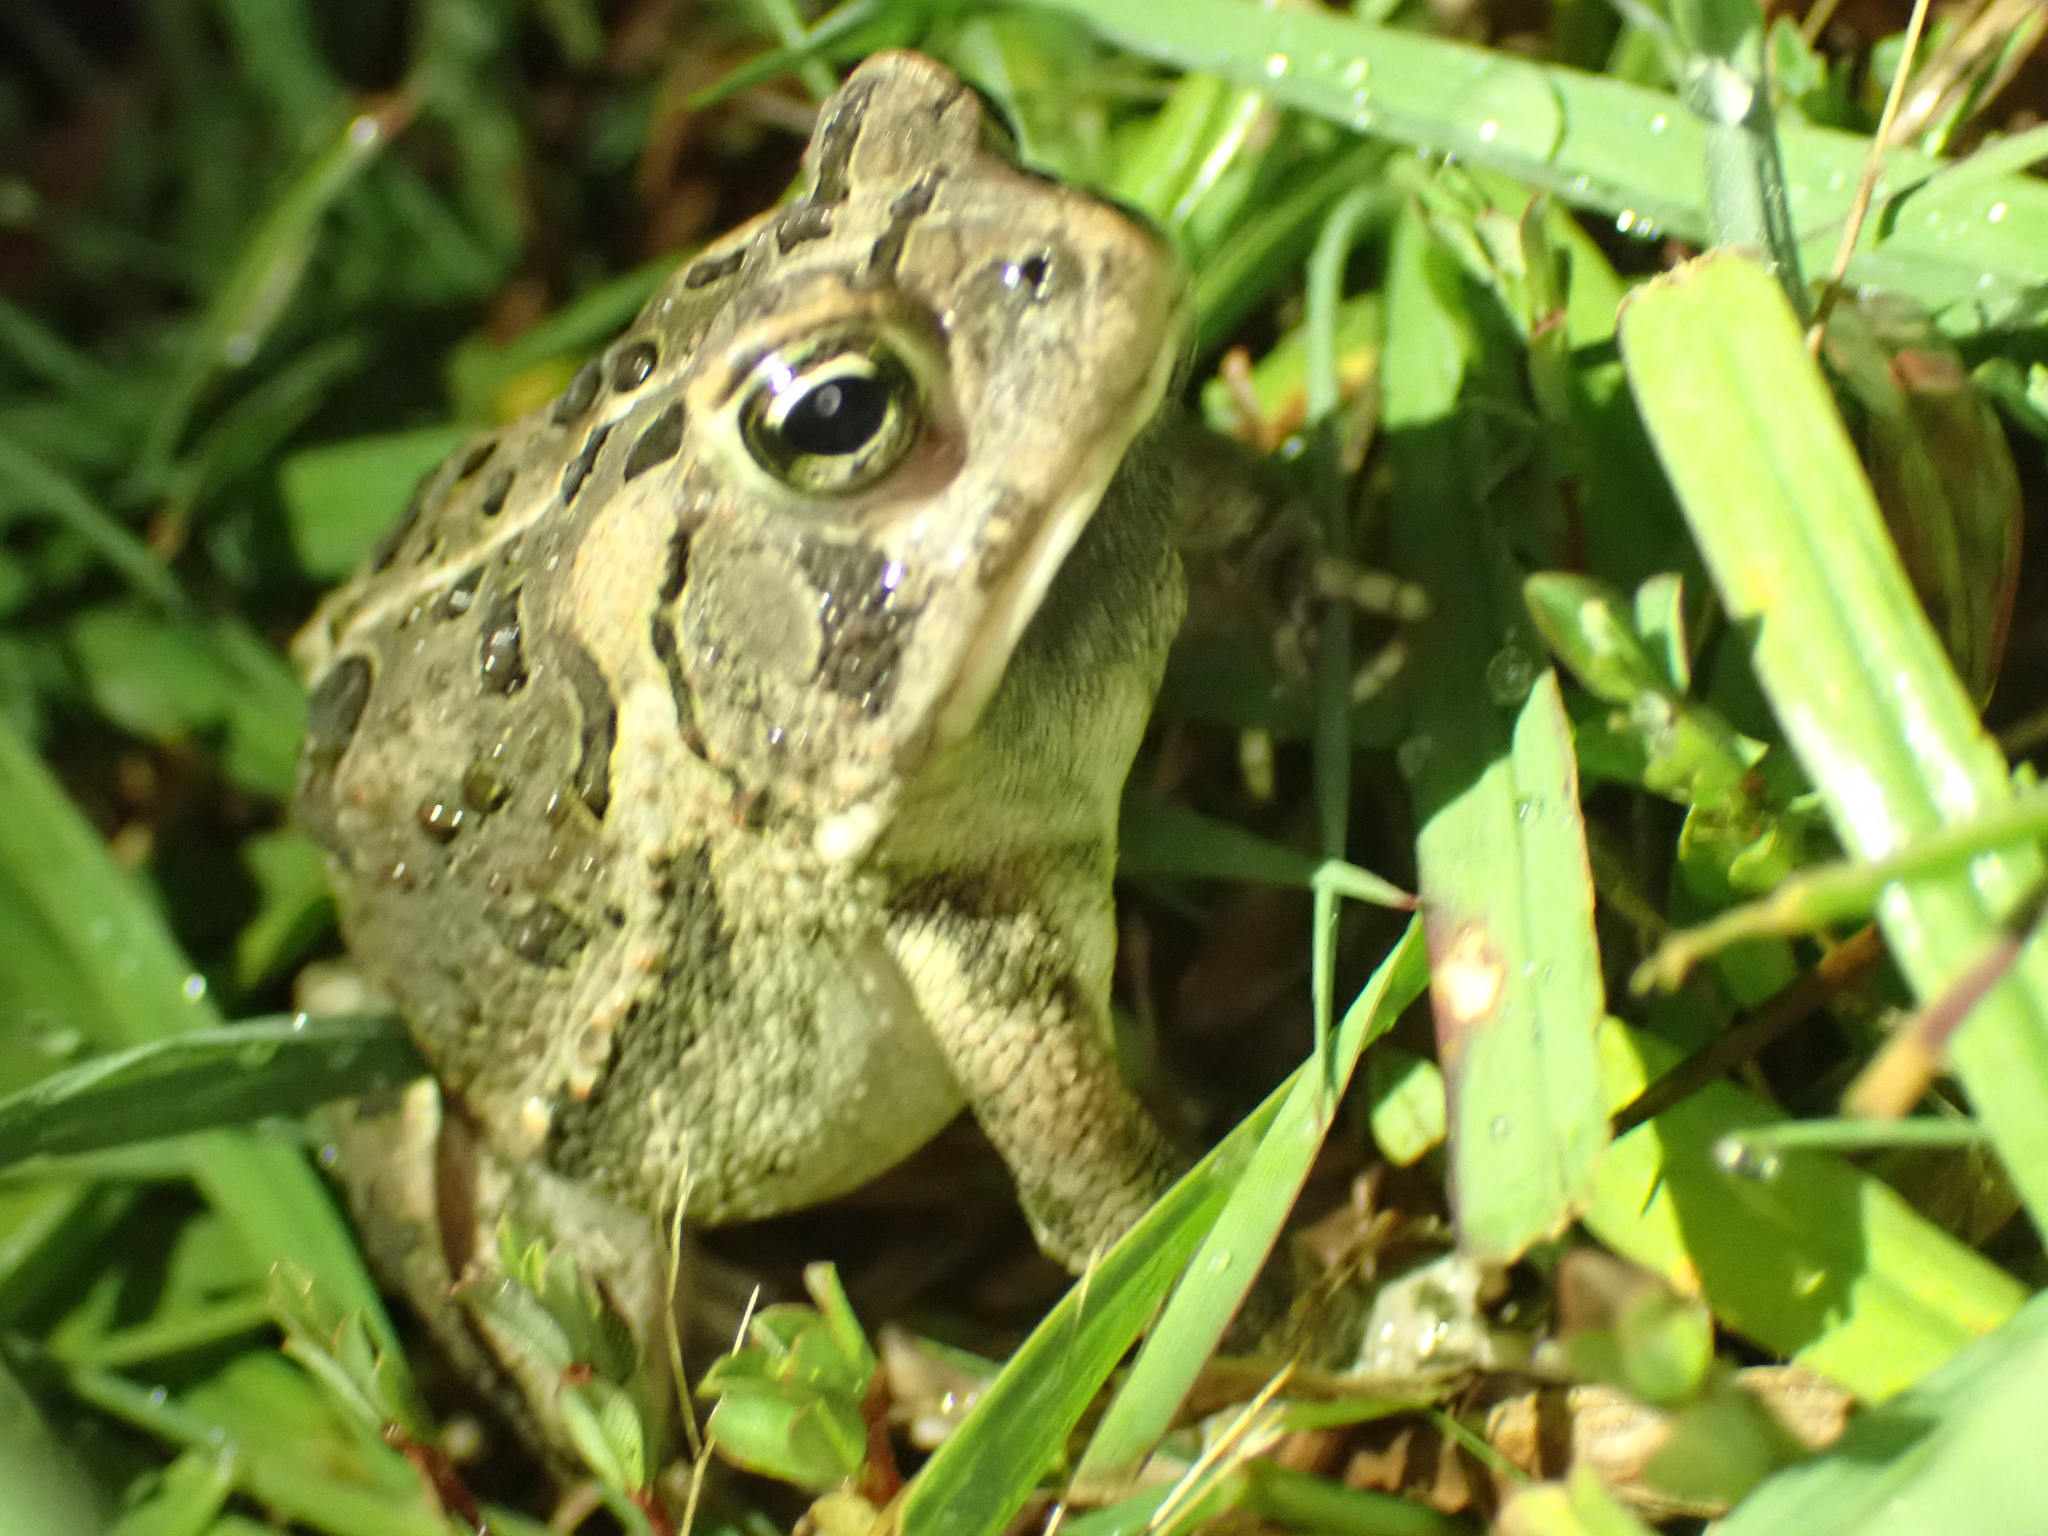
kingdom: Animalia
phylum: Chordata
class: Amphibia
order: Anura
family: Bufonidae
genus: Anaxyrus
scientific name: Anaxyrus fowleri
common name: Fowler's toad
